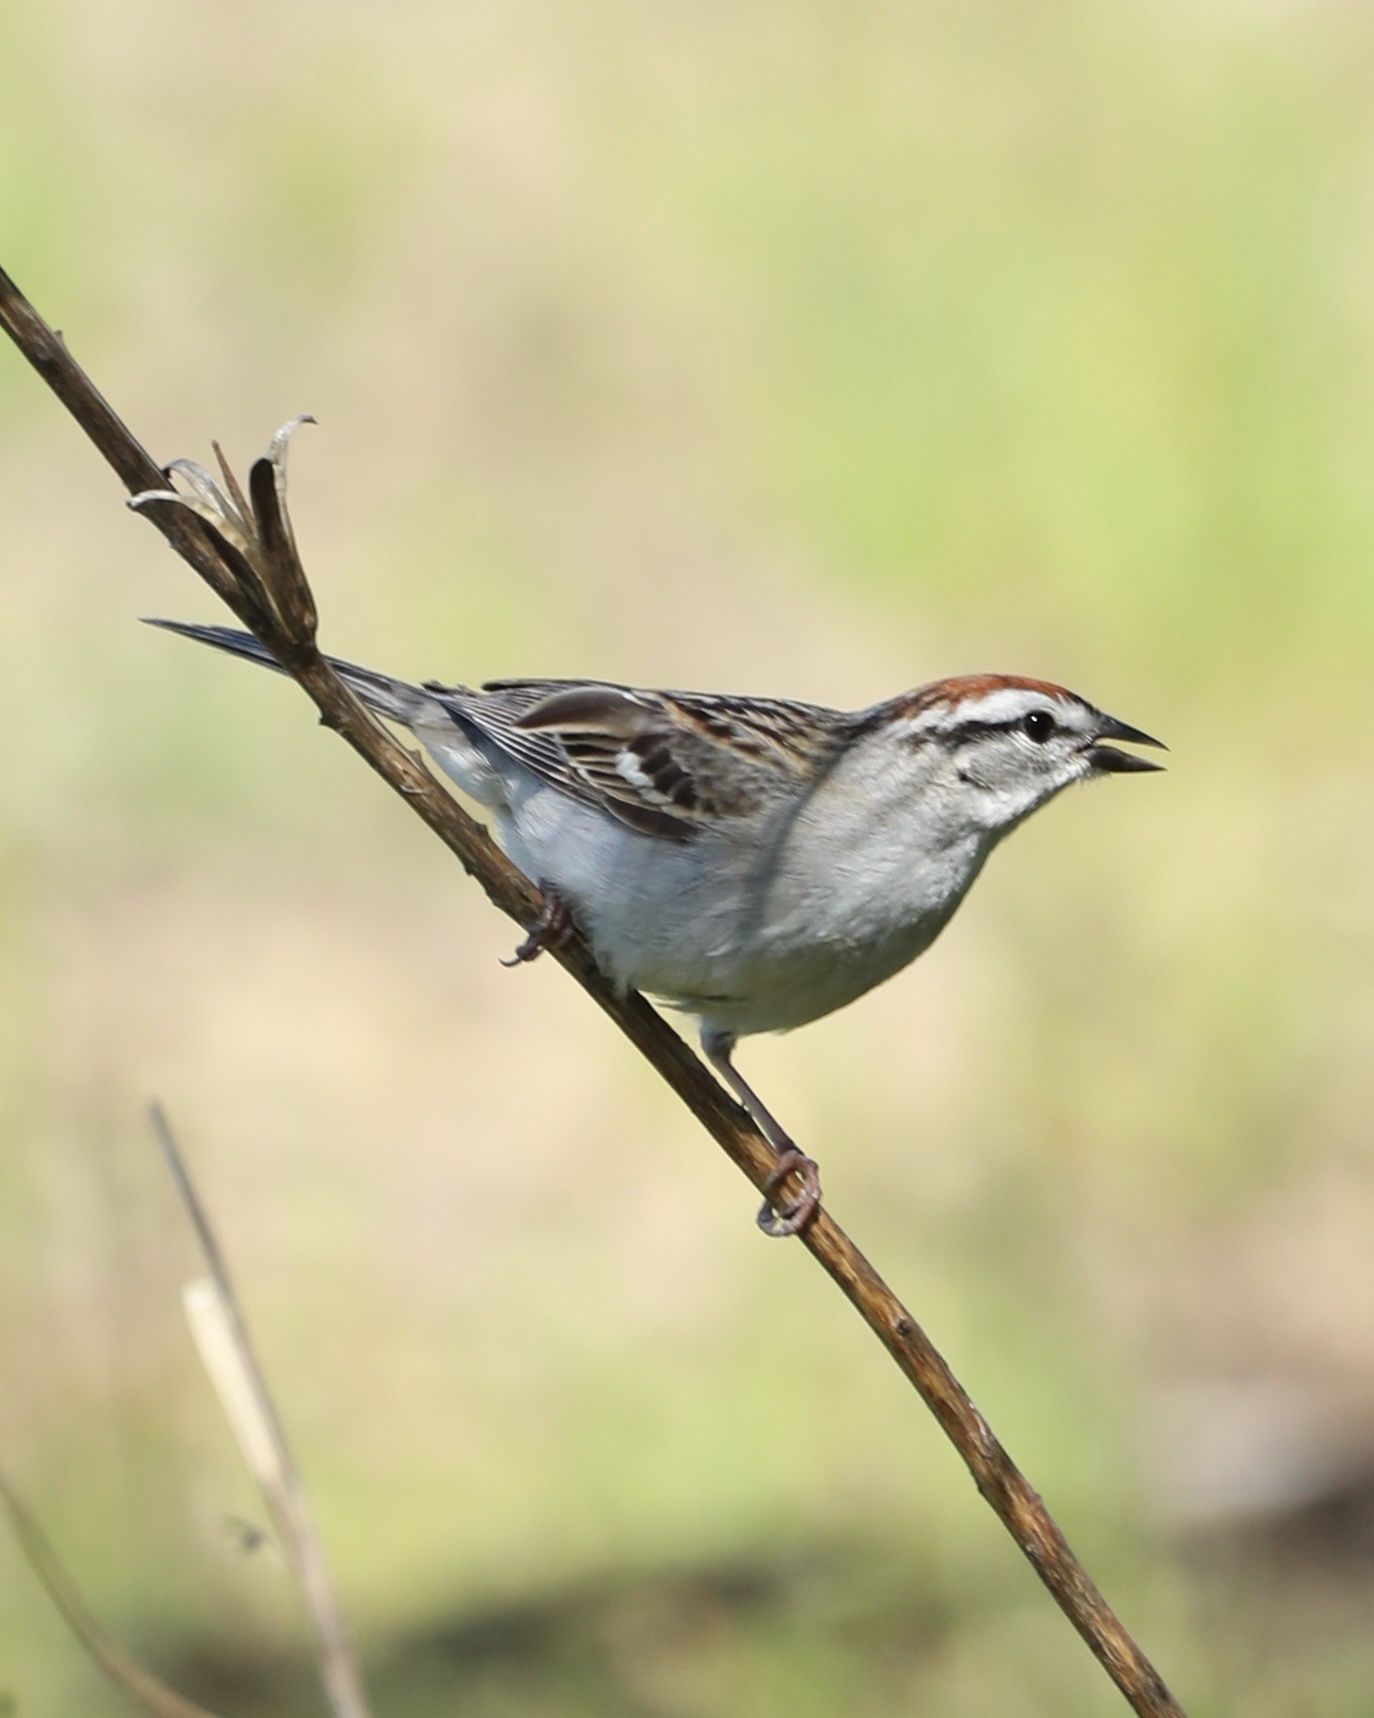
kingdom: Animalia
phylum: Chordata
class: Aves
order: Passeriformes
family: Passerellidae
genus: Spizella
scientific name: Spizella passerina
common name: Chipping sparrow
